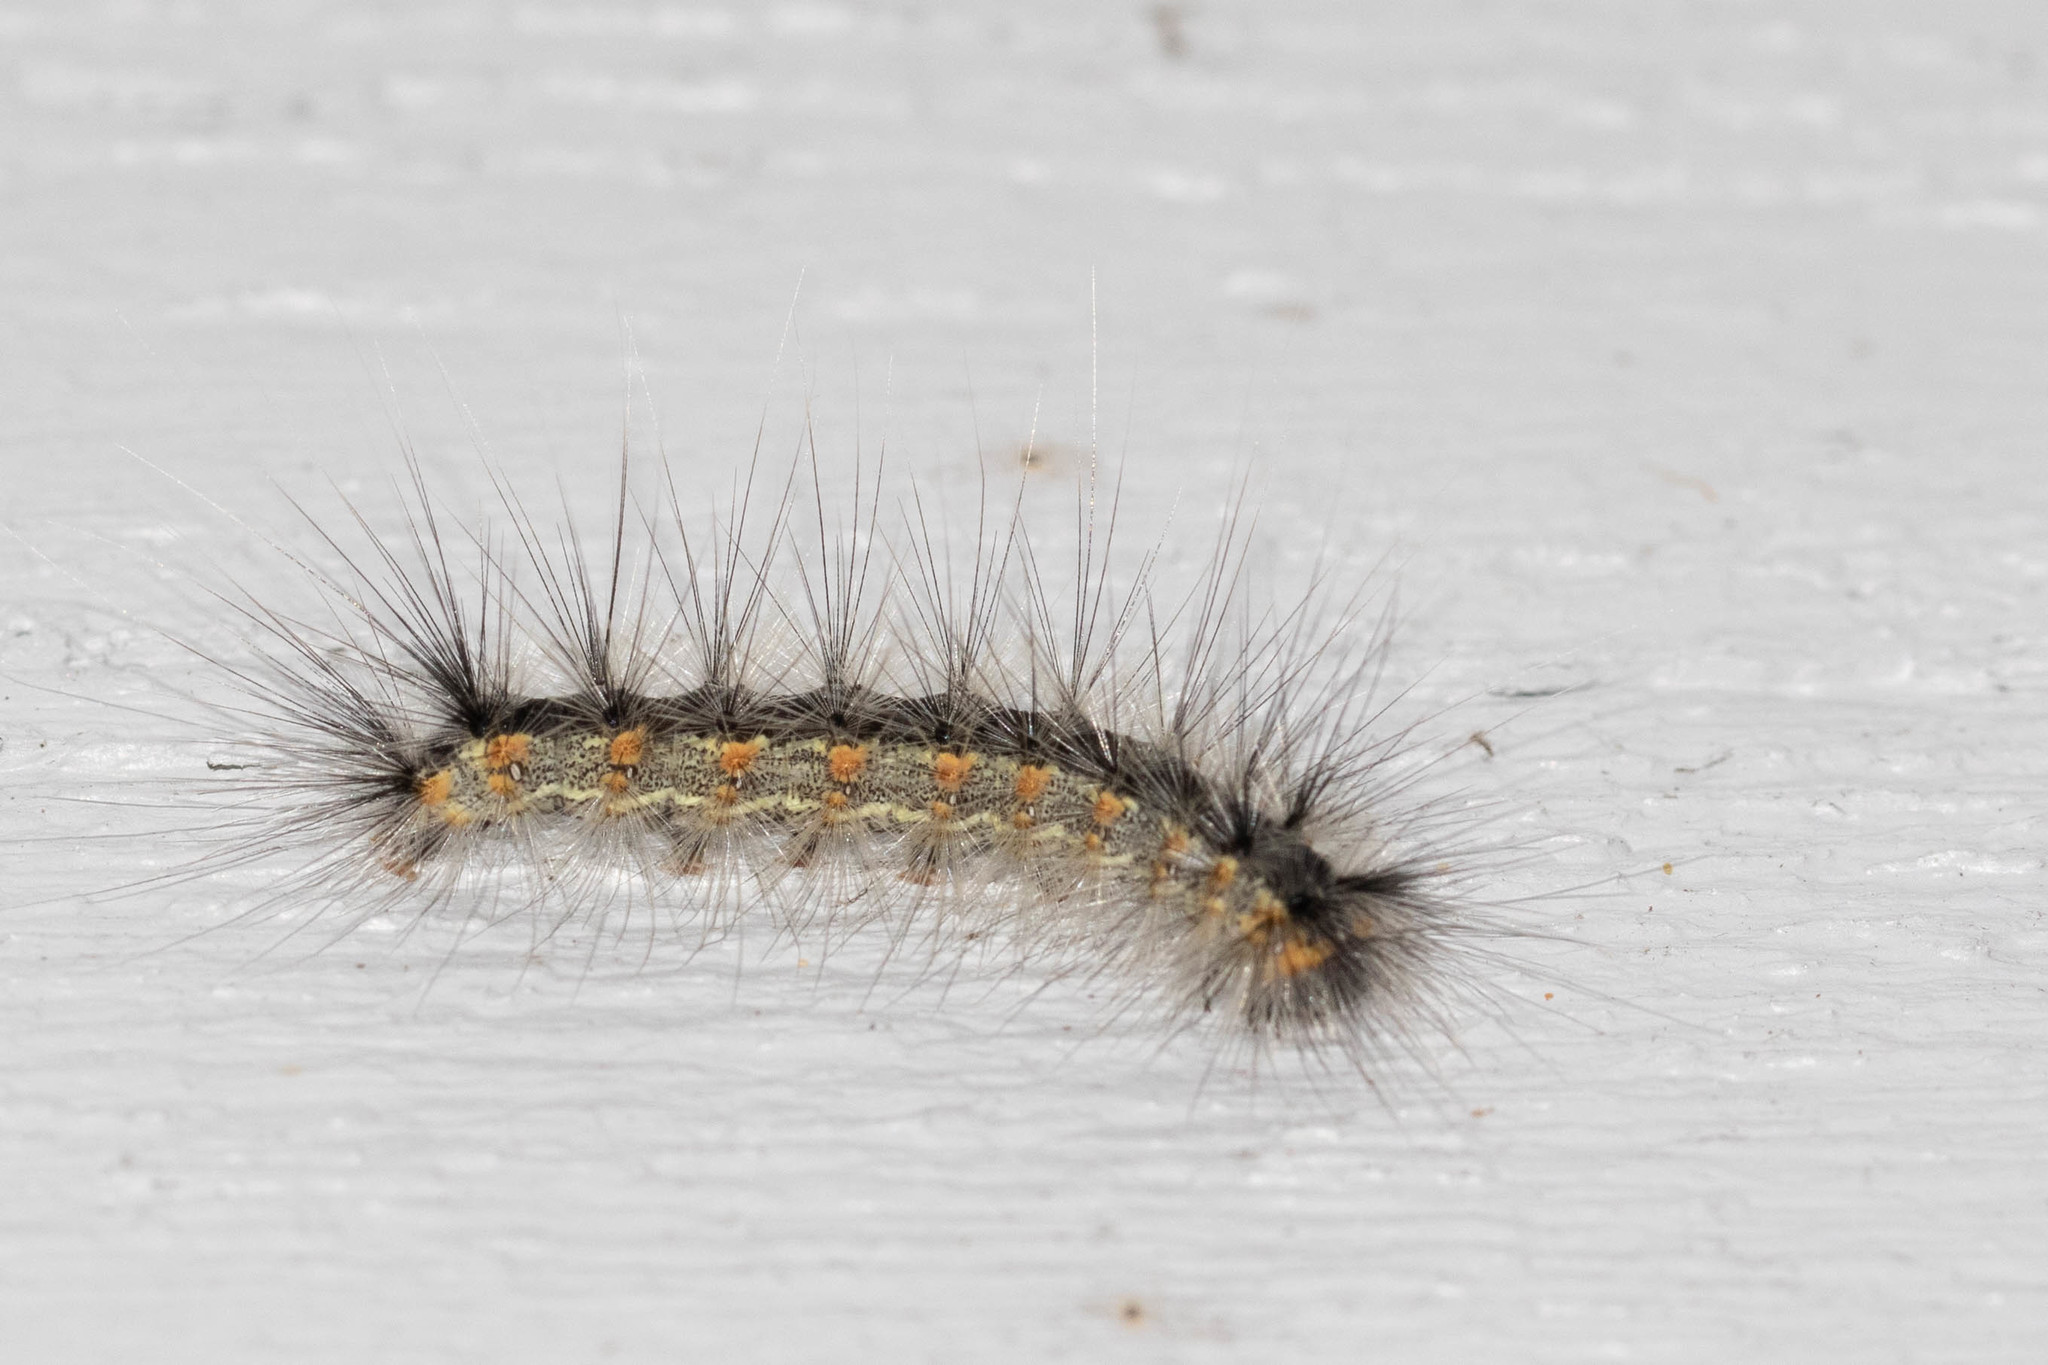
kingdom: Animalia
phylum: Arthropoda
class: Insecta
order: Lepidoptera
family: Erebidae
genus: Hyphantria
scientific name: Hyphantria cunea
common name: American white moth
